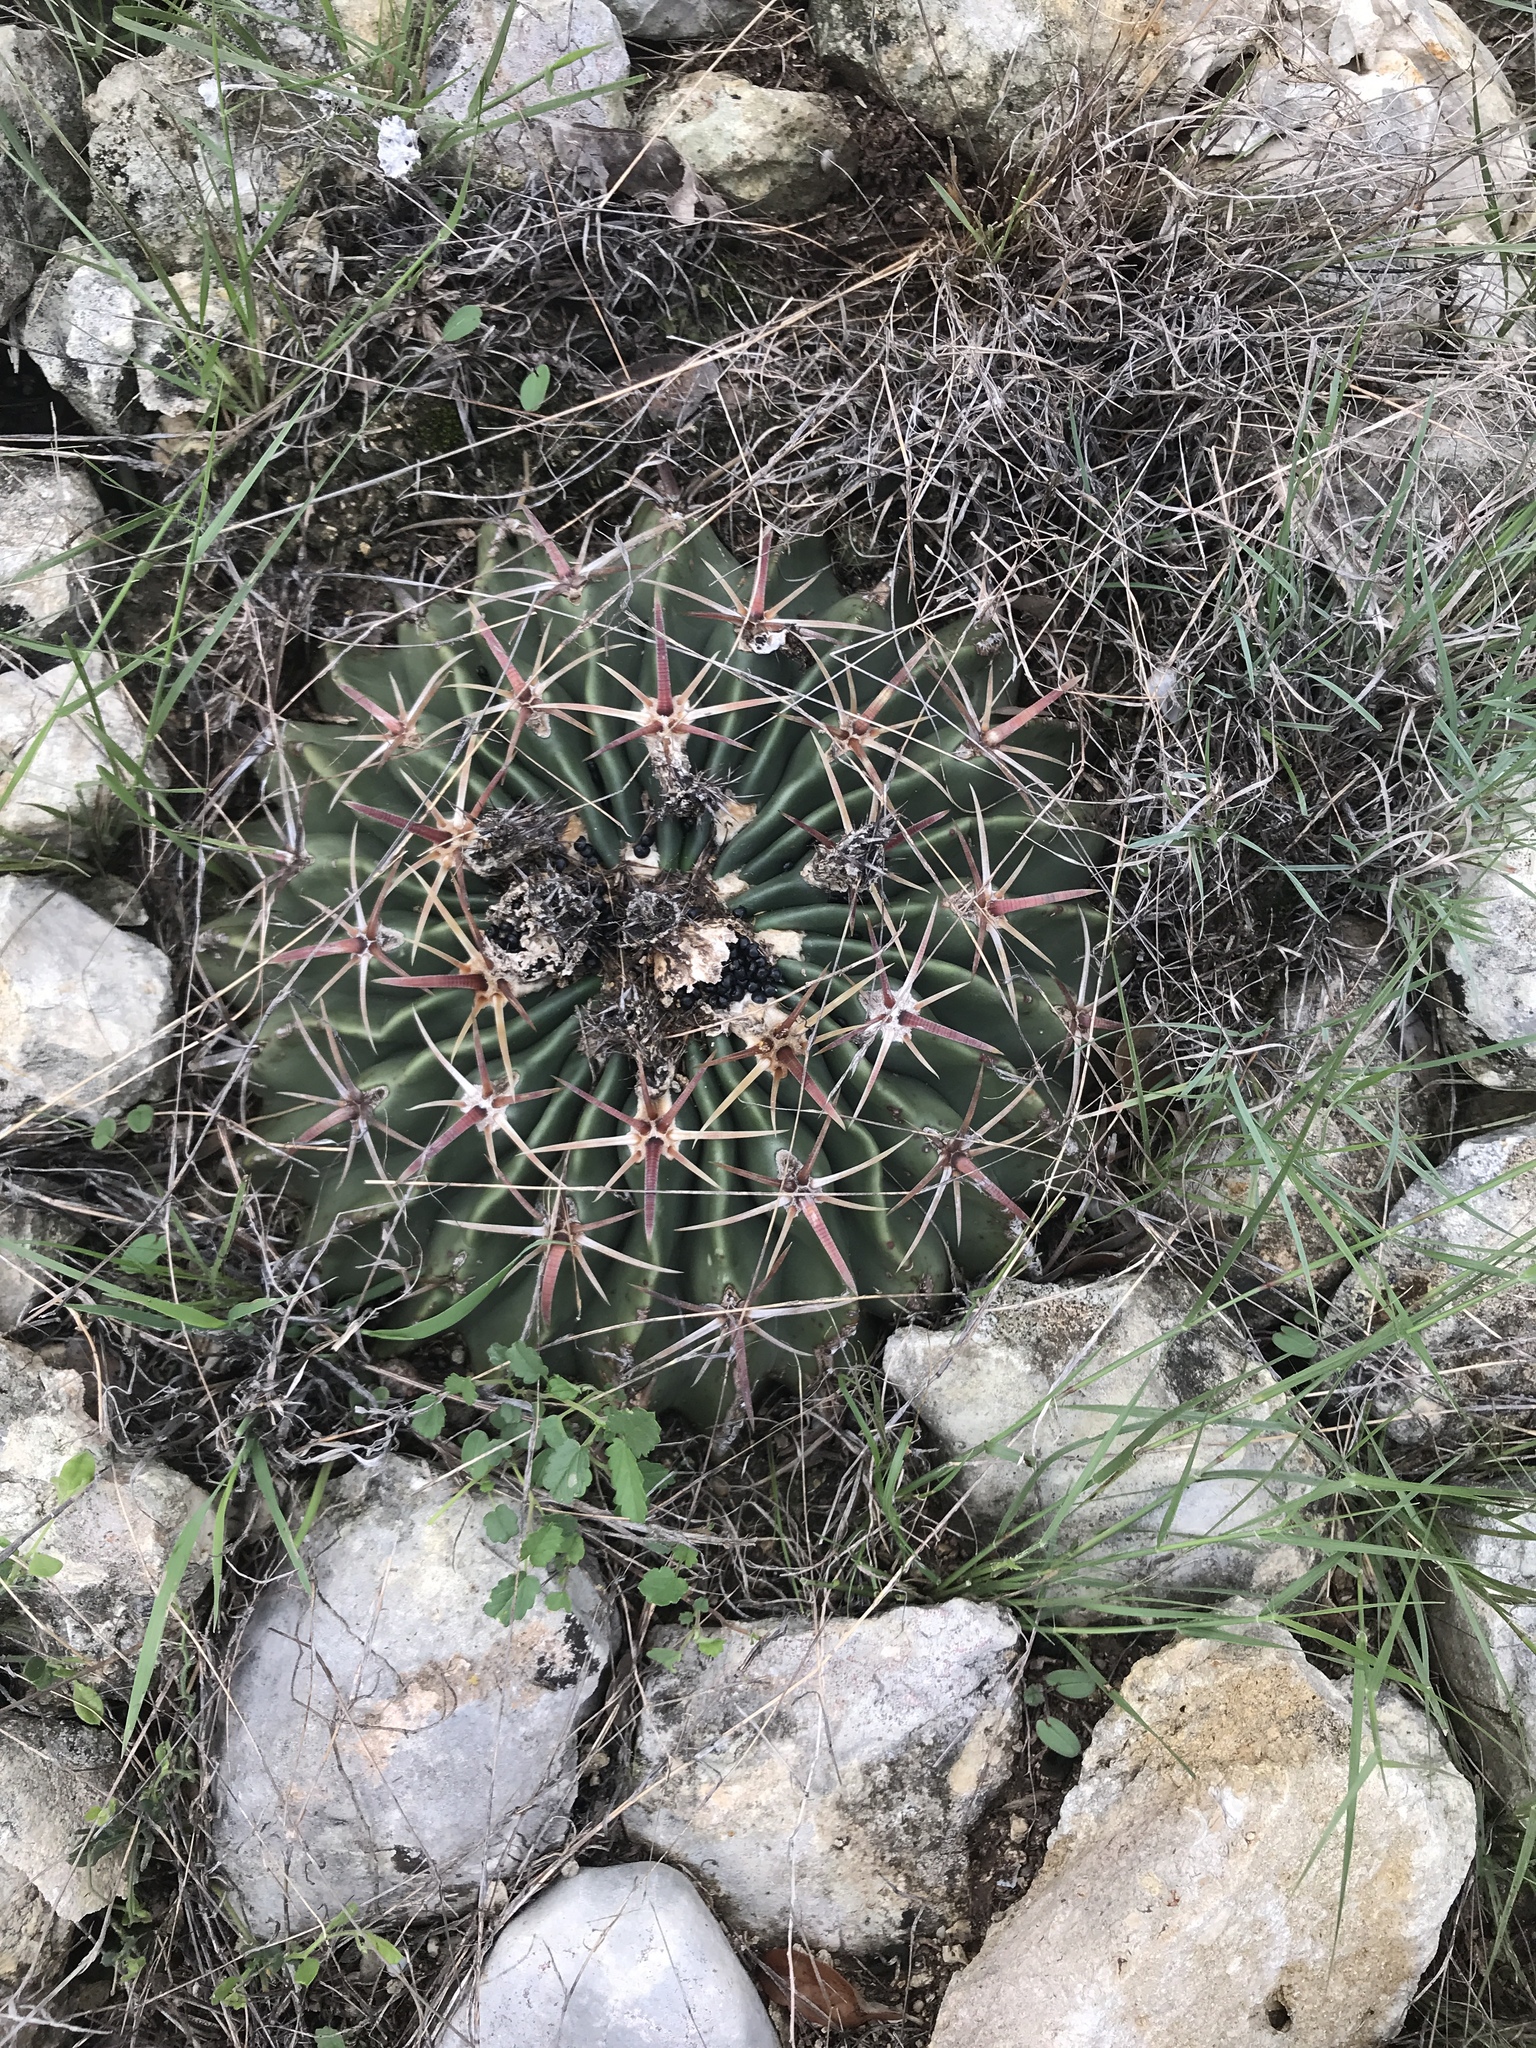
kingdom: Plantae
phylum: Tracheophyta
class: Magnoliopsida
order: Caryophyllales
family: Cactaceae
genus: Echinocactus
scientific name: Echinocactus texensis
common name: Devil's pincushion
